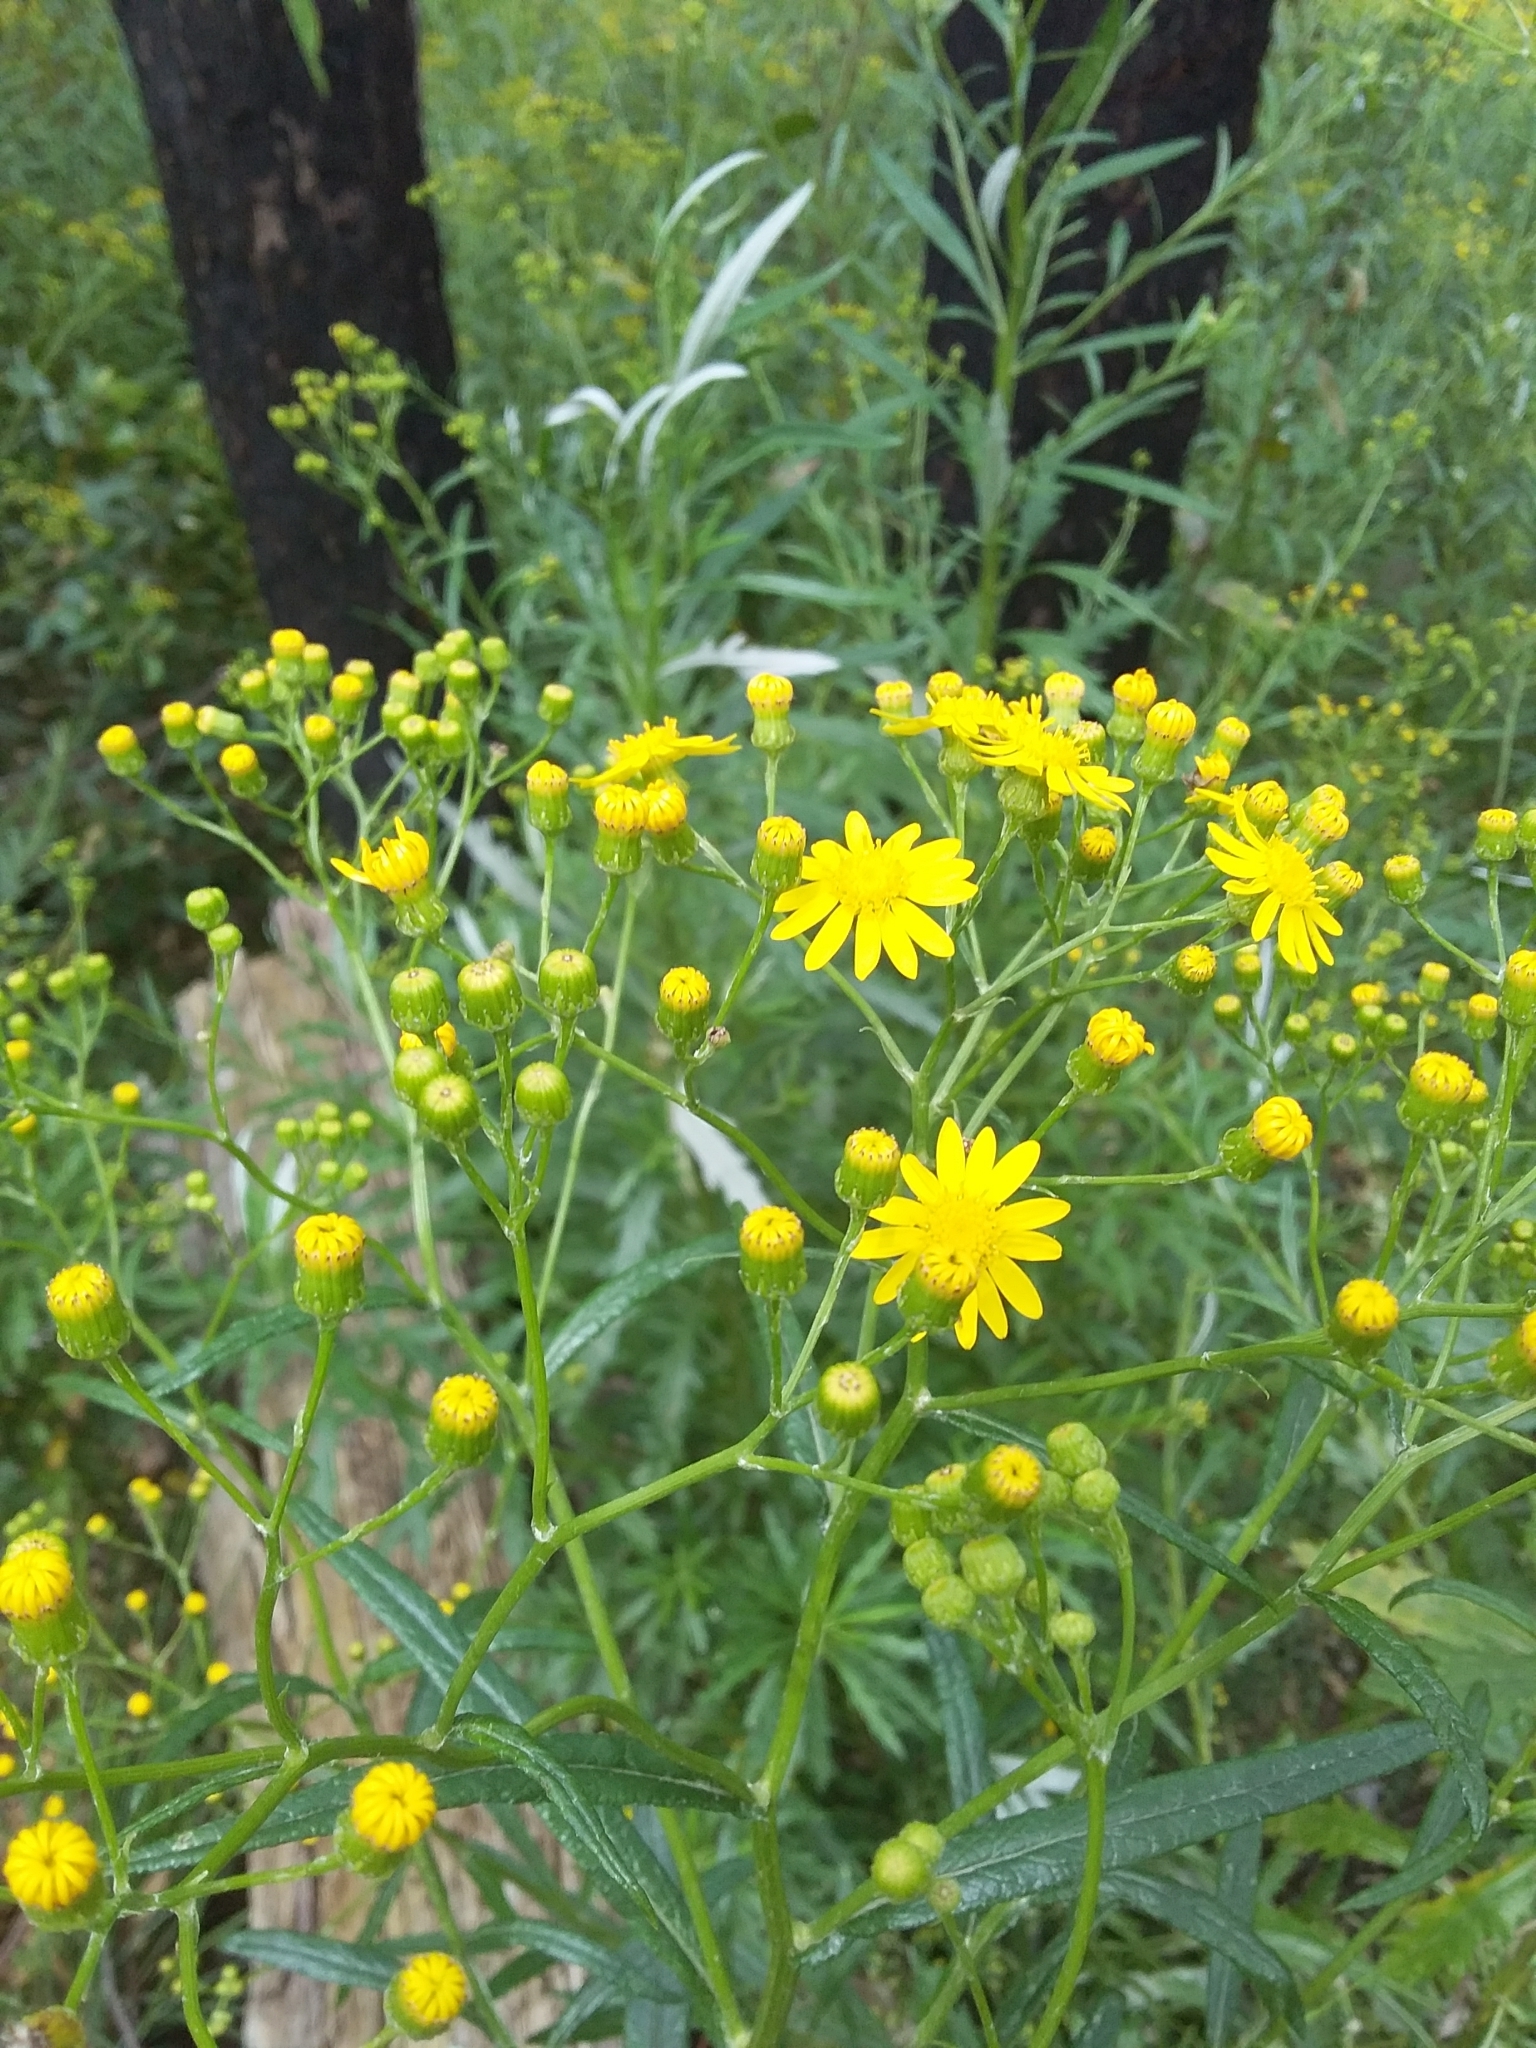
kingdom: Plantae
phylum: Tracheophyta
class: Magnoliopsida
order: Asterales
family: Asteraceae
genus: Senecio
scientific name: Senecio pterophorus
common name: Shoddy ragwort
